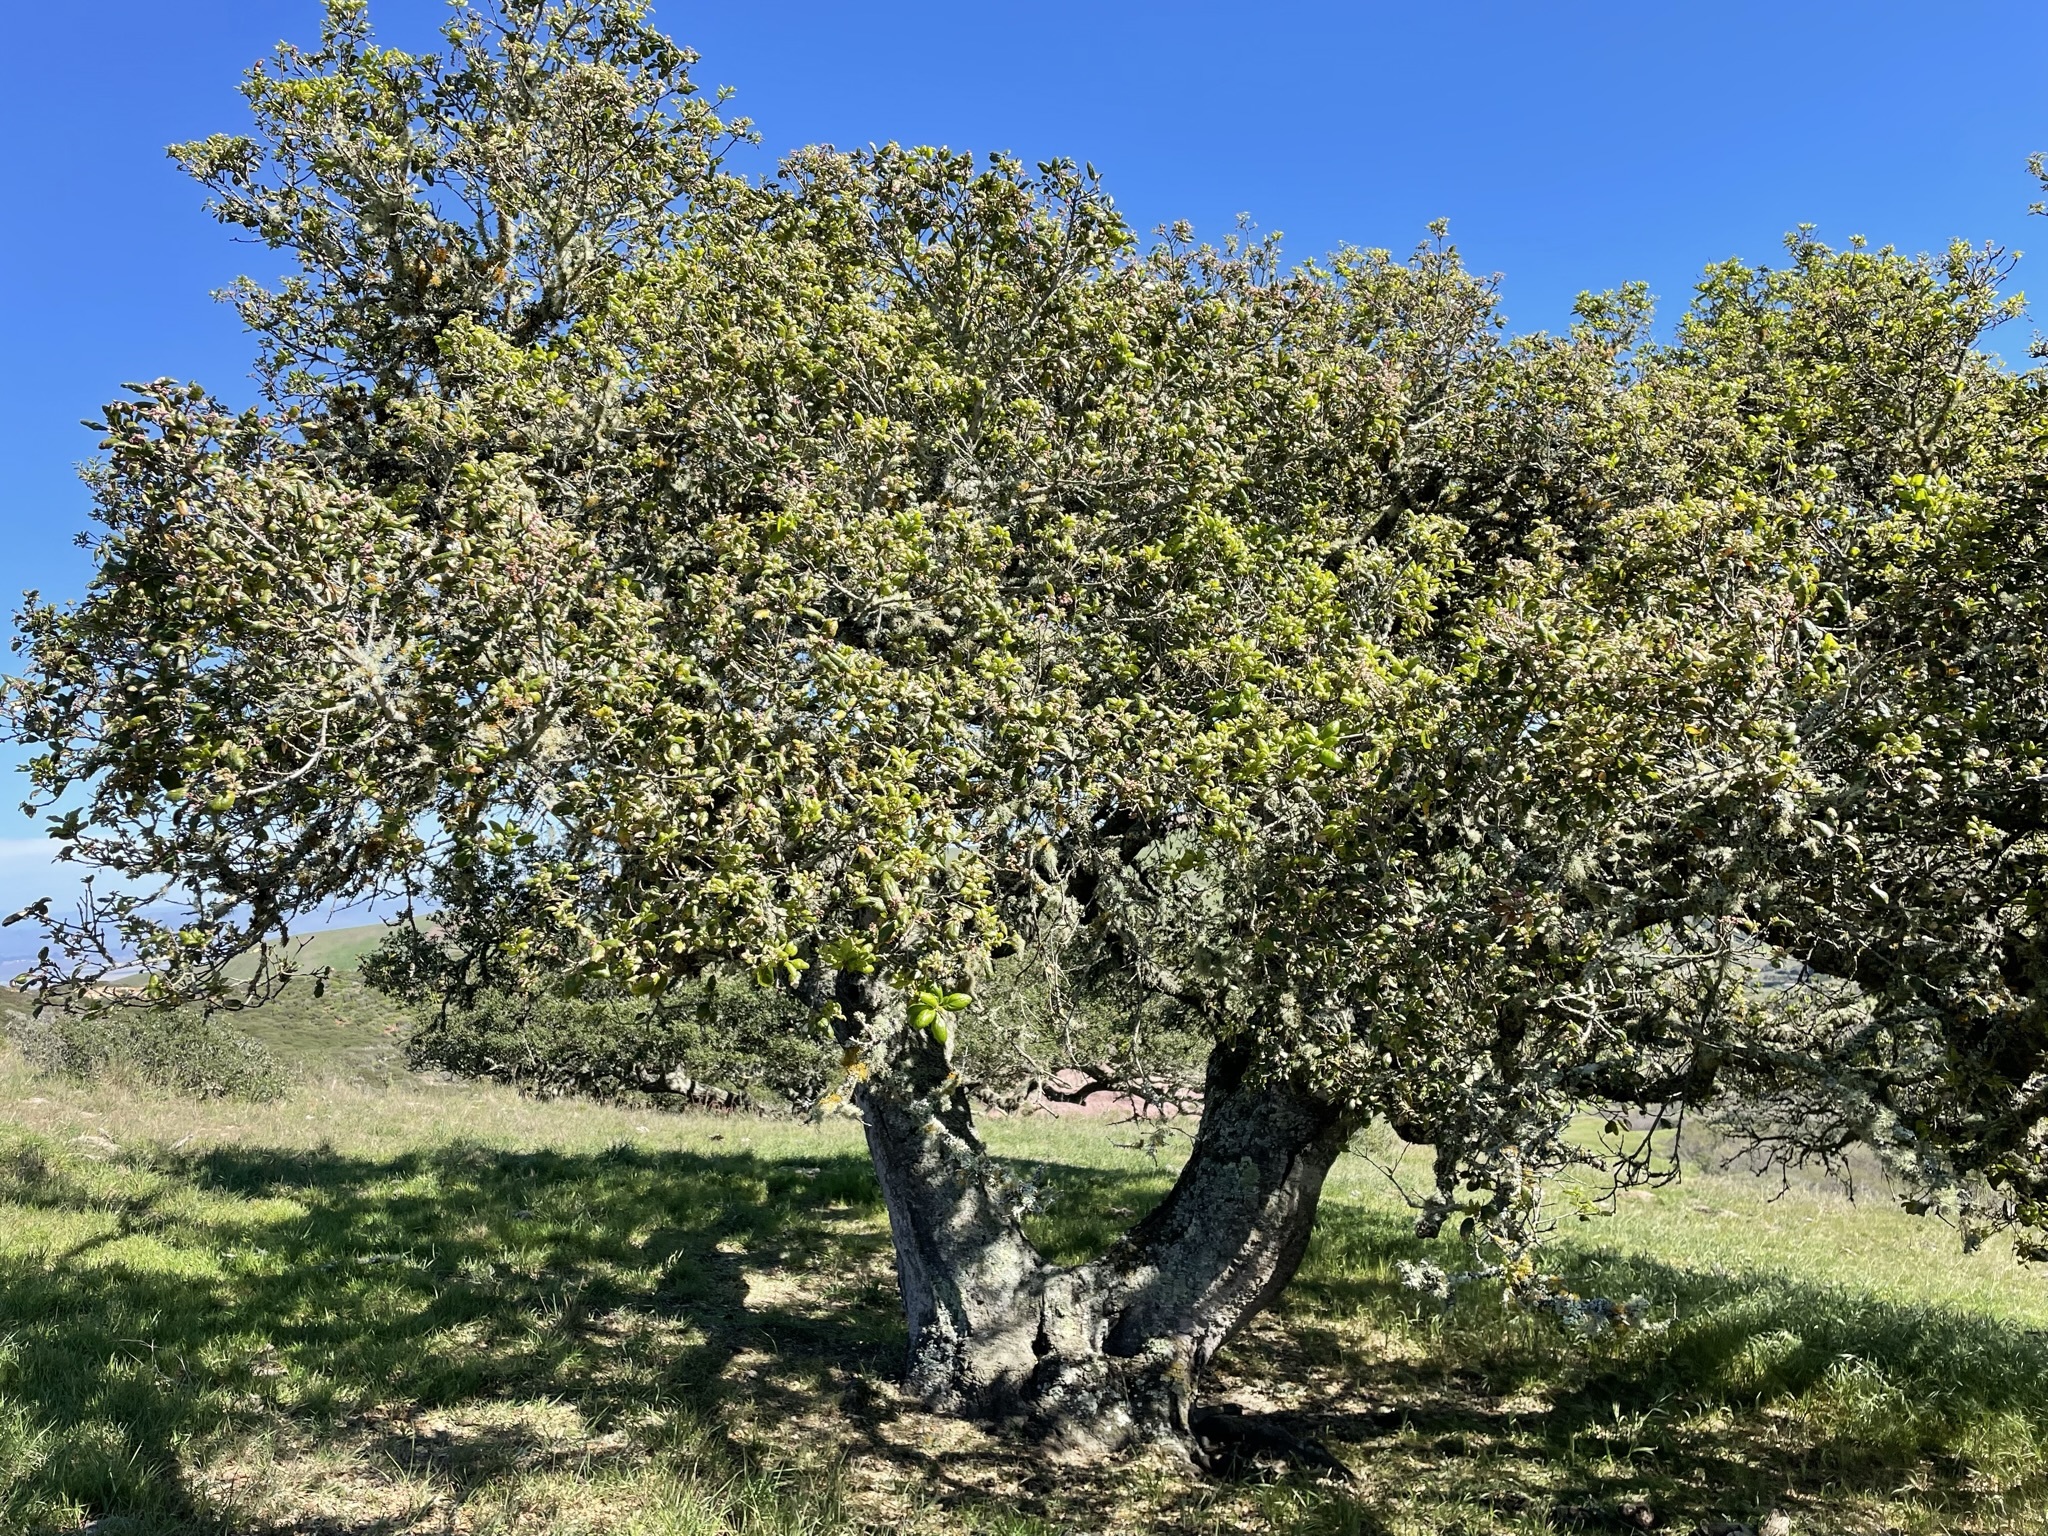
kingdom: Plantae
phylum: Tracheophyta
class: Magnoliopsida
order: Fagales
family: Fagaceae
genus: Quercus
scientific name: Quercus agrifolia
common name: California live oak
